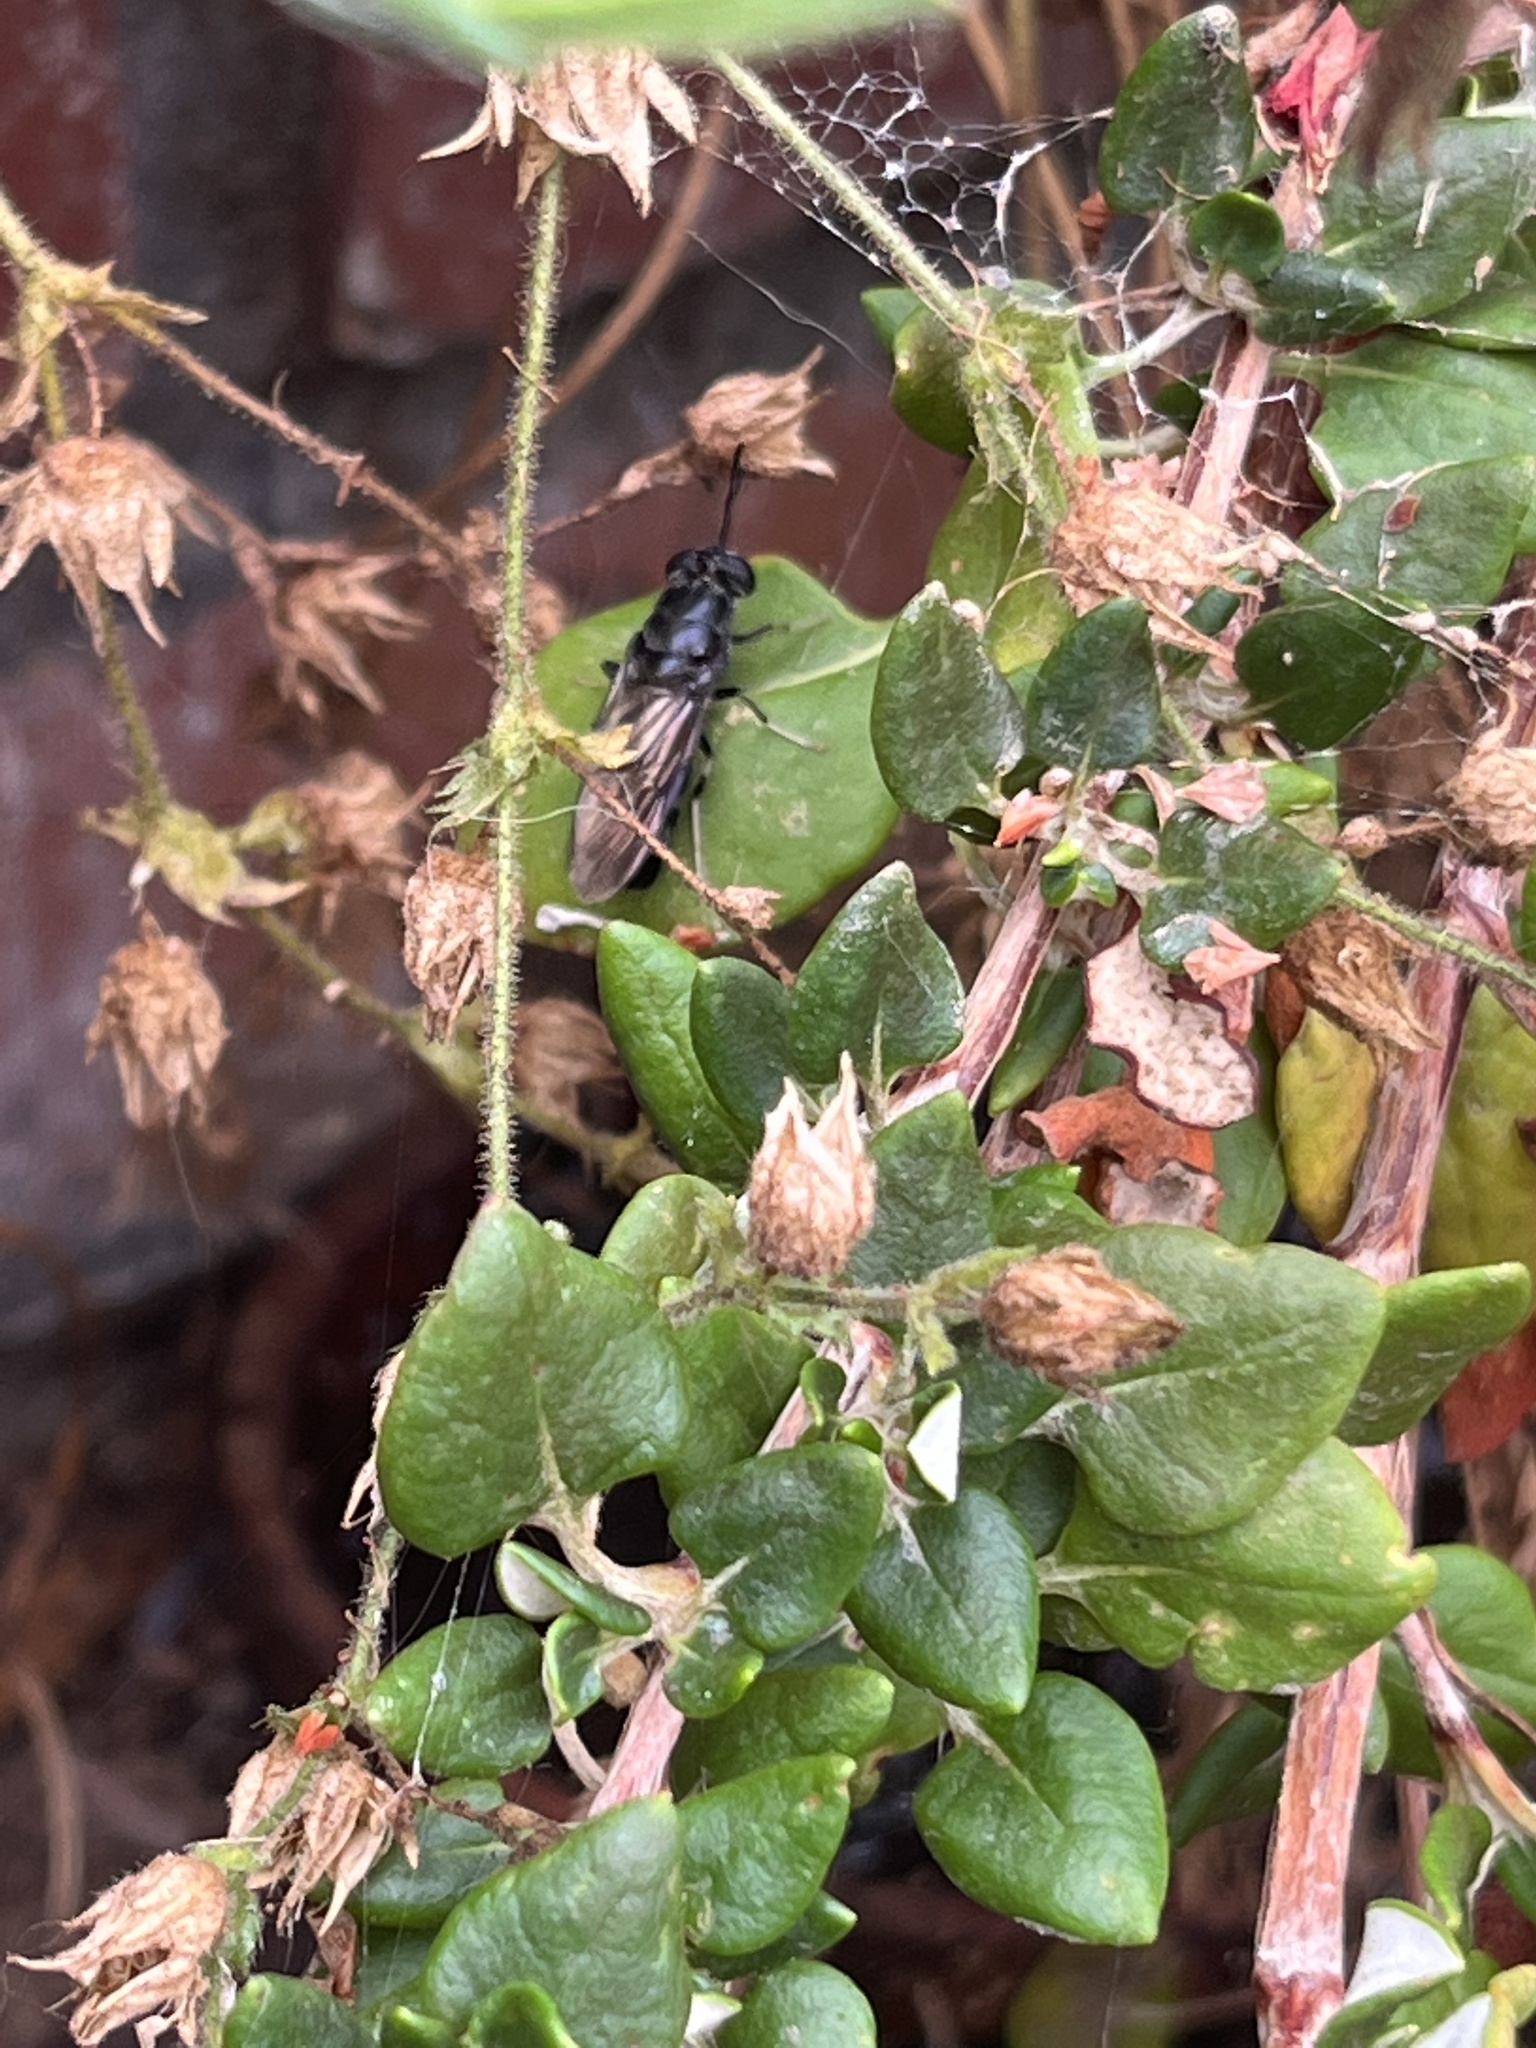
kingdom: Animalia
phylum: Arthropoda
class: Insecta
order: Diptera
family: Stratiomyidae
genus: Hermetia
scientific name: Hermetia illucens
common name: Black soldier fly
